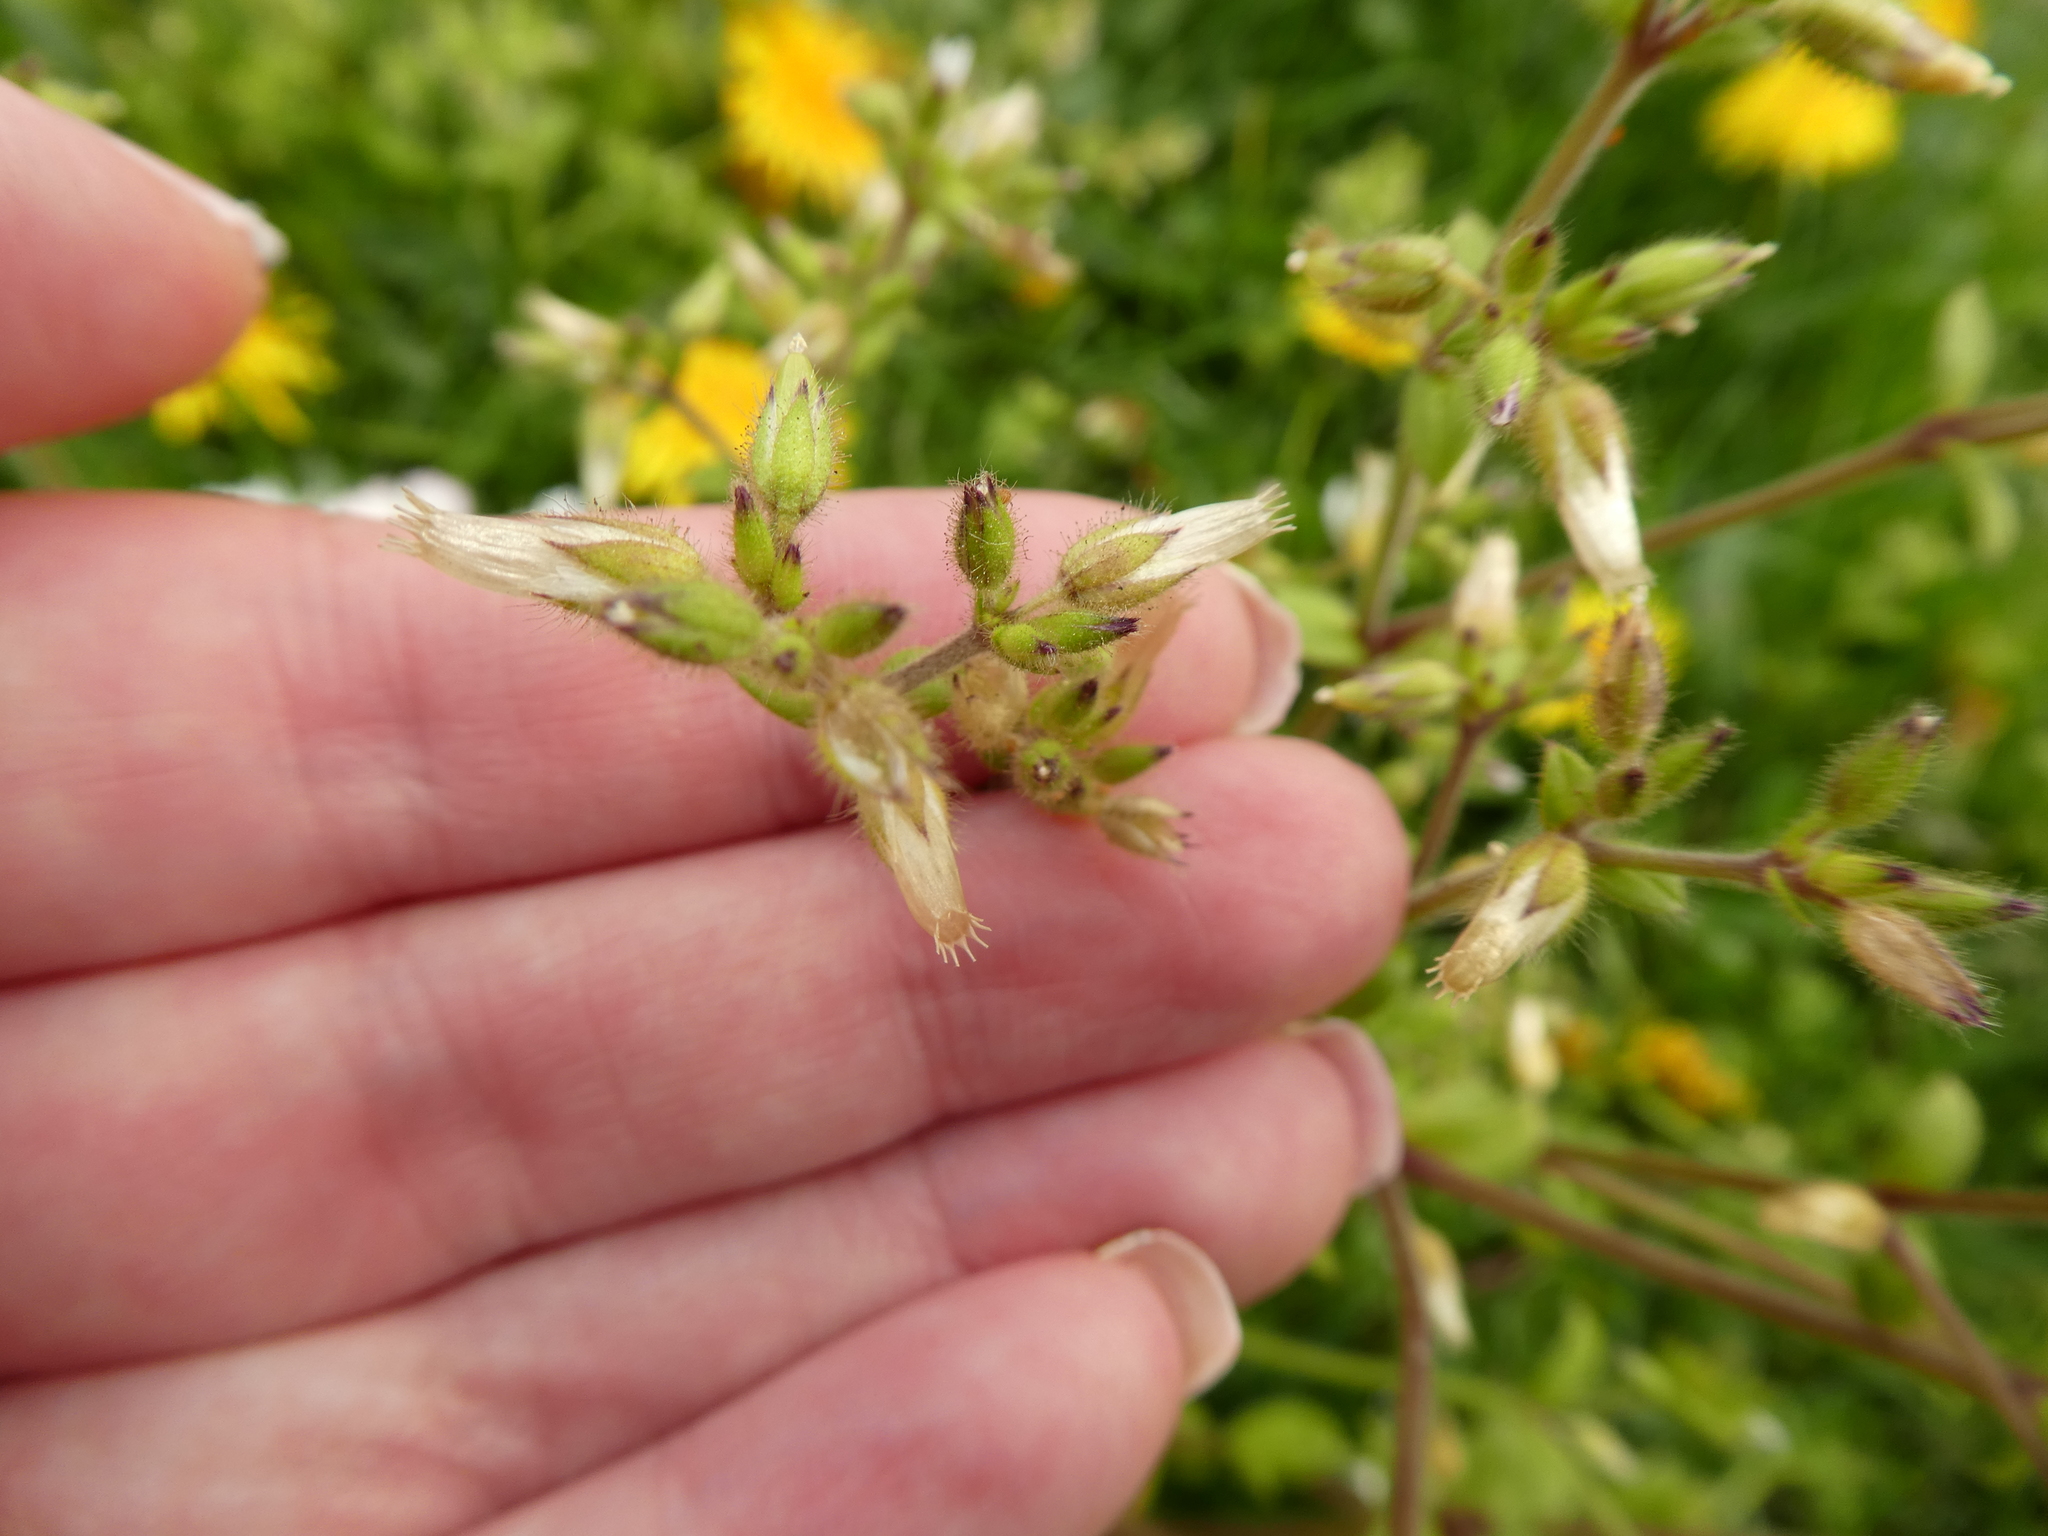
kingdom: Plantae
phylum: Tracheophyta
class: Magnoliopsida
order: Caryophyllales
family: Caryophyllaceae
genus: Cerastium
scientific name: Cerastium glomeratum
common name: Sticky chickweed
